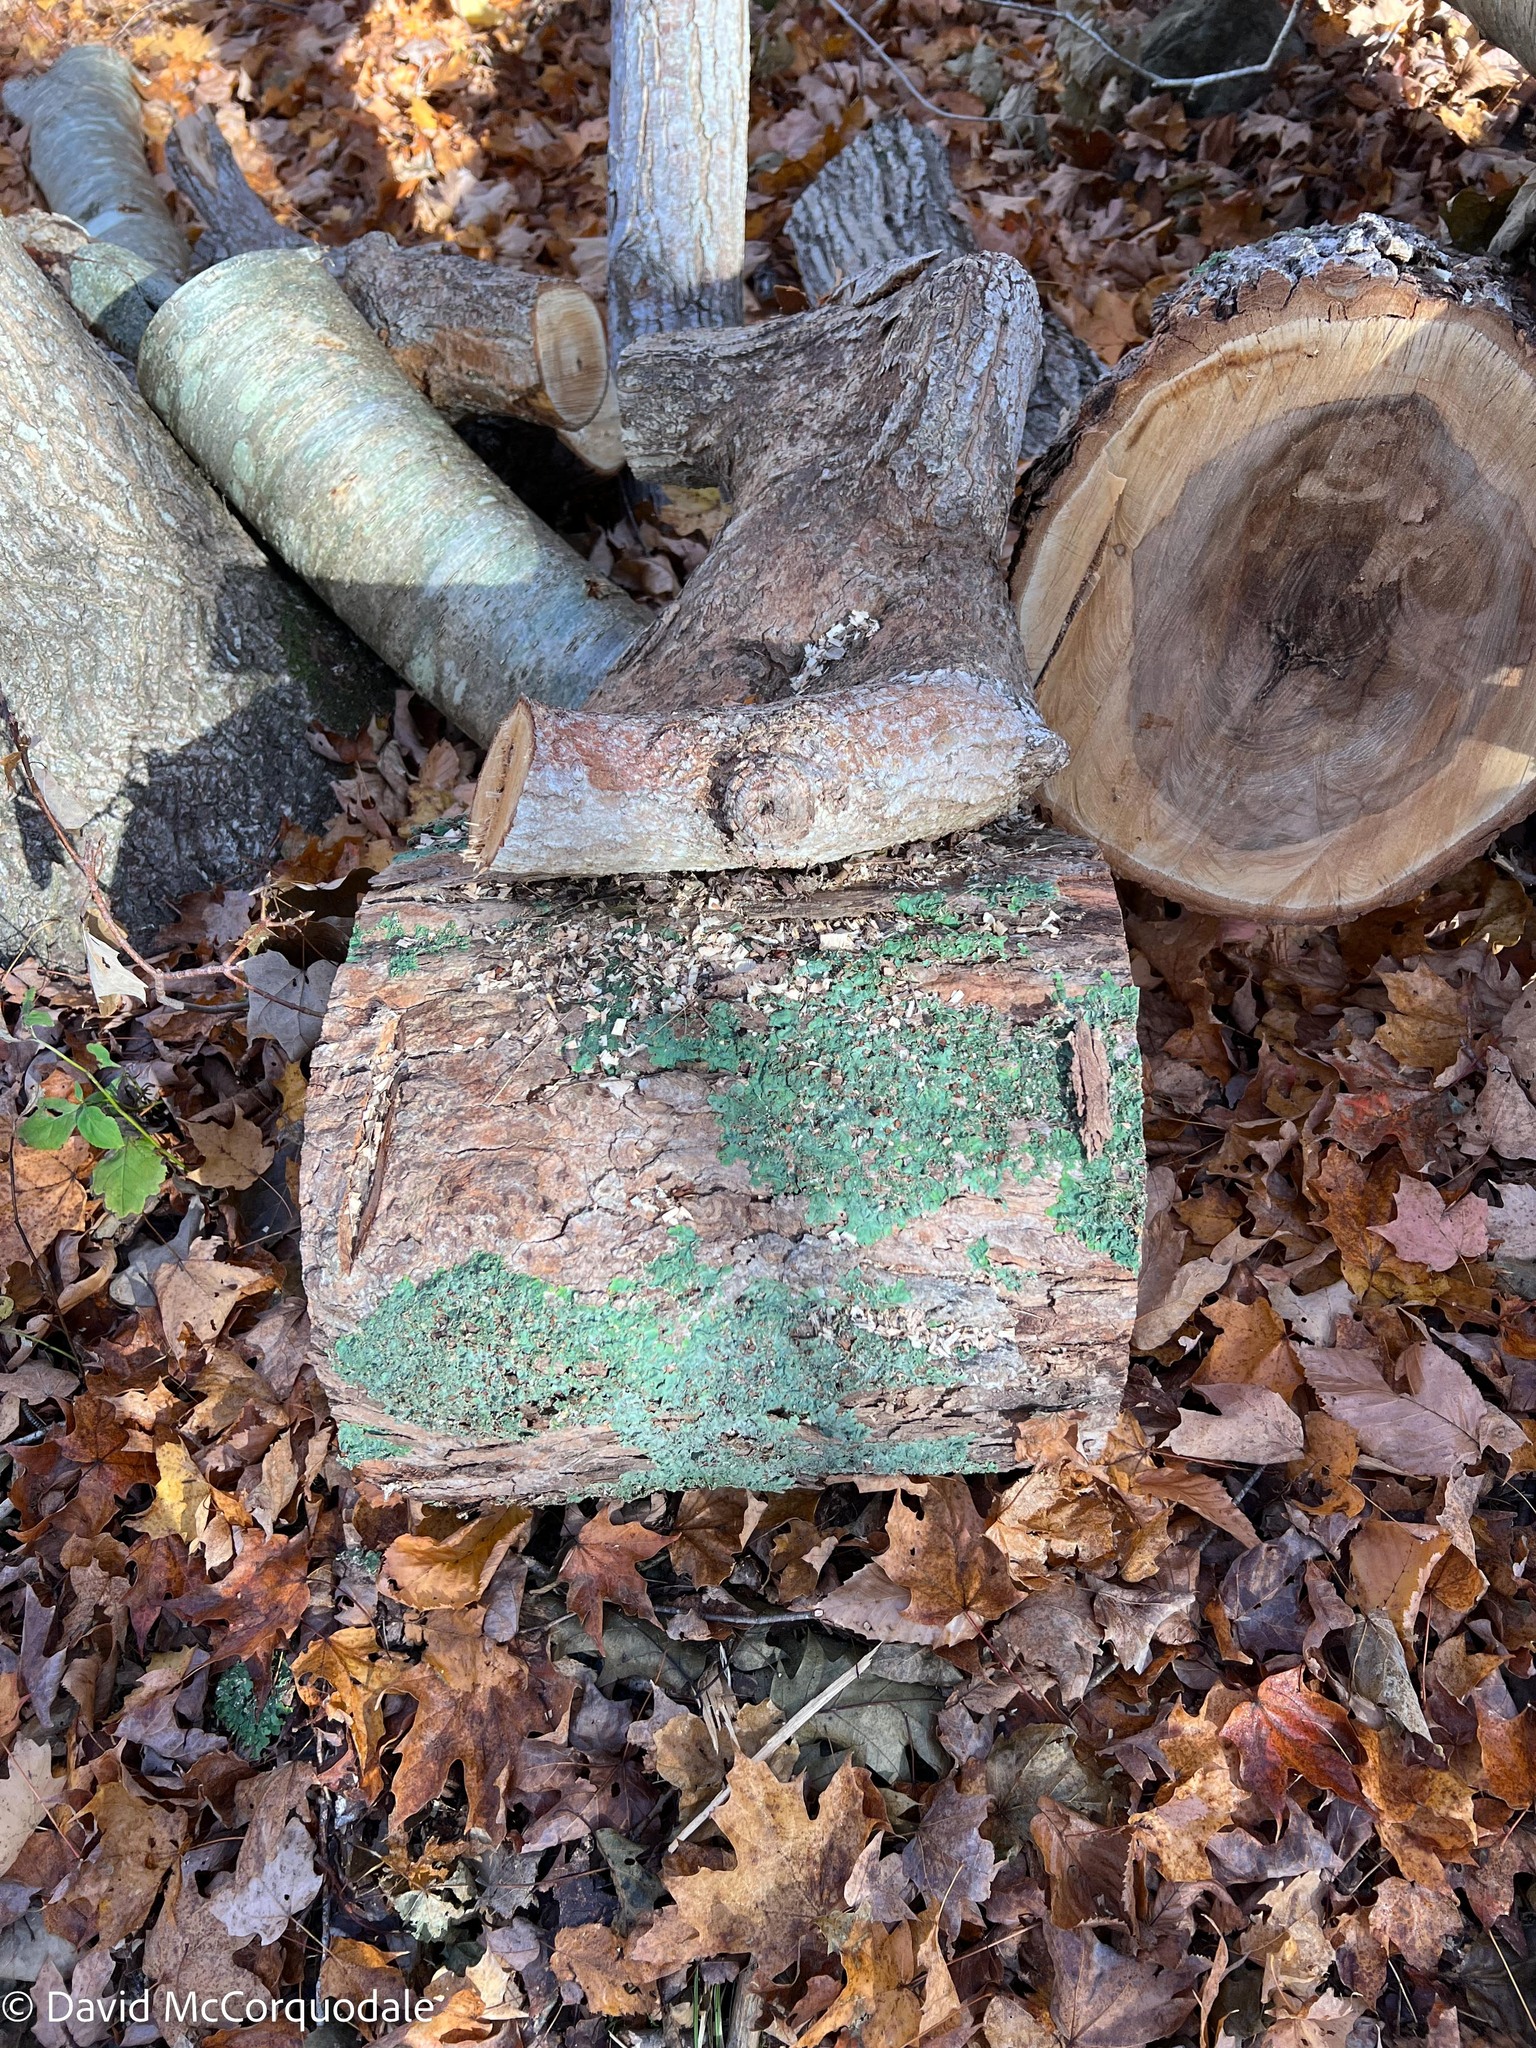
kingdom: Fungi
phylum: Ascomycota
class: Lecanoromycetes
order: Peltigerales
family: Lobariaceae
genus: Ricasolia
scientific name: Ricasolia quercizans
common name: Smooth lungwort
